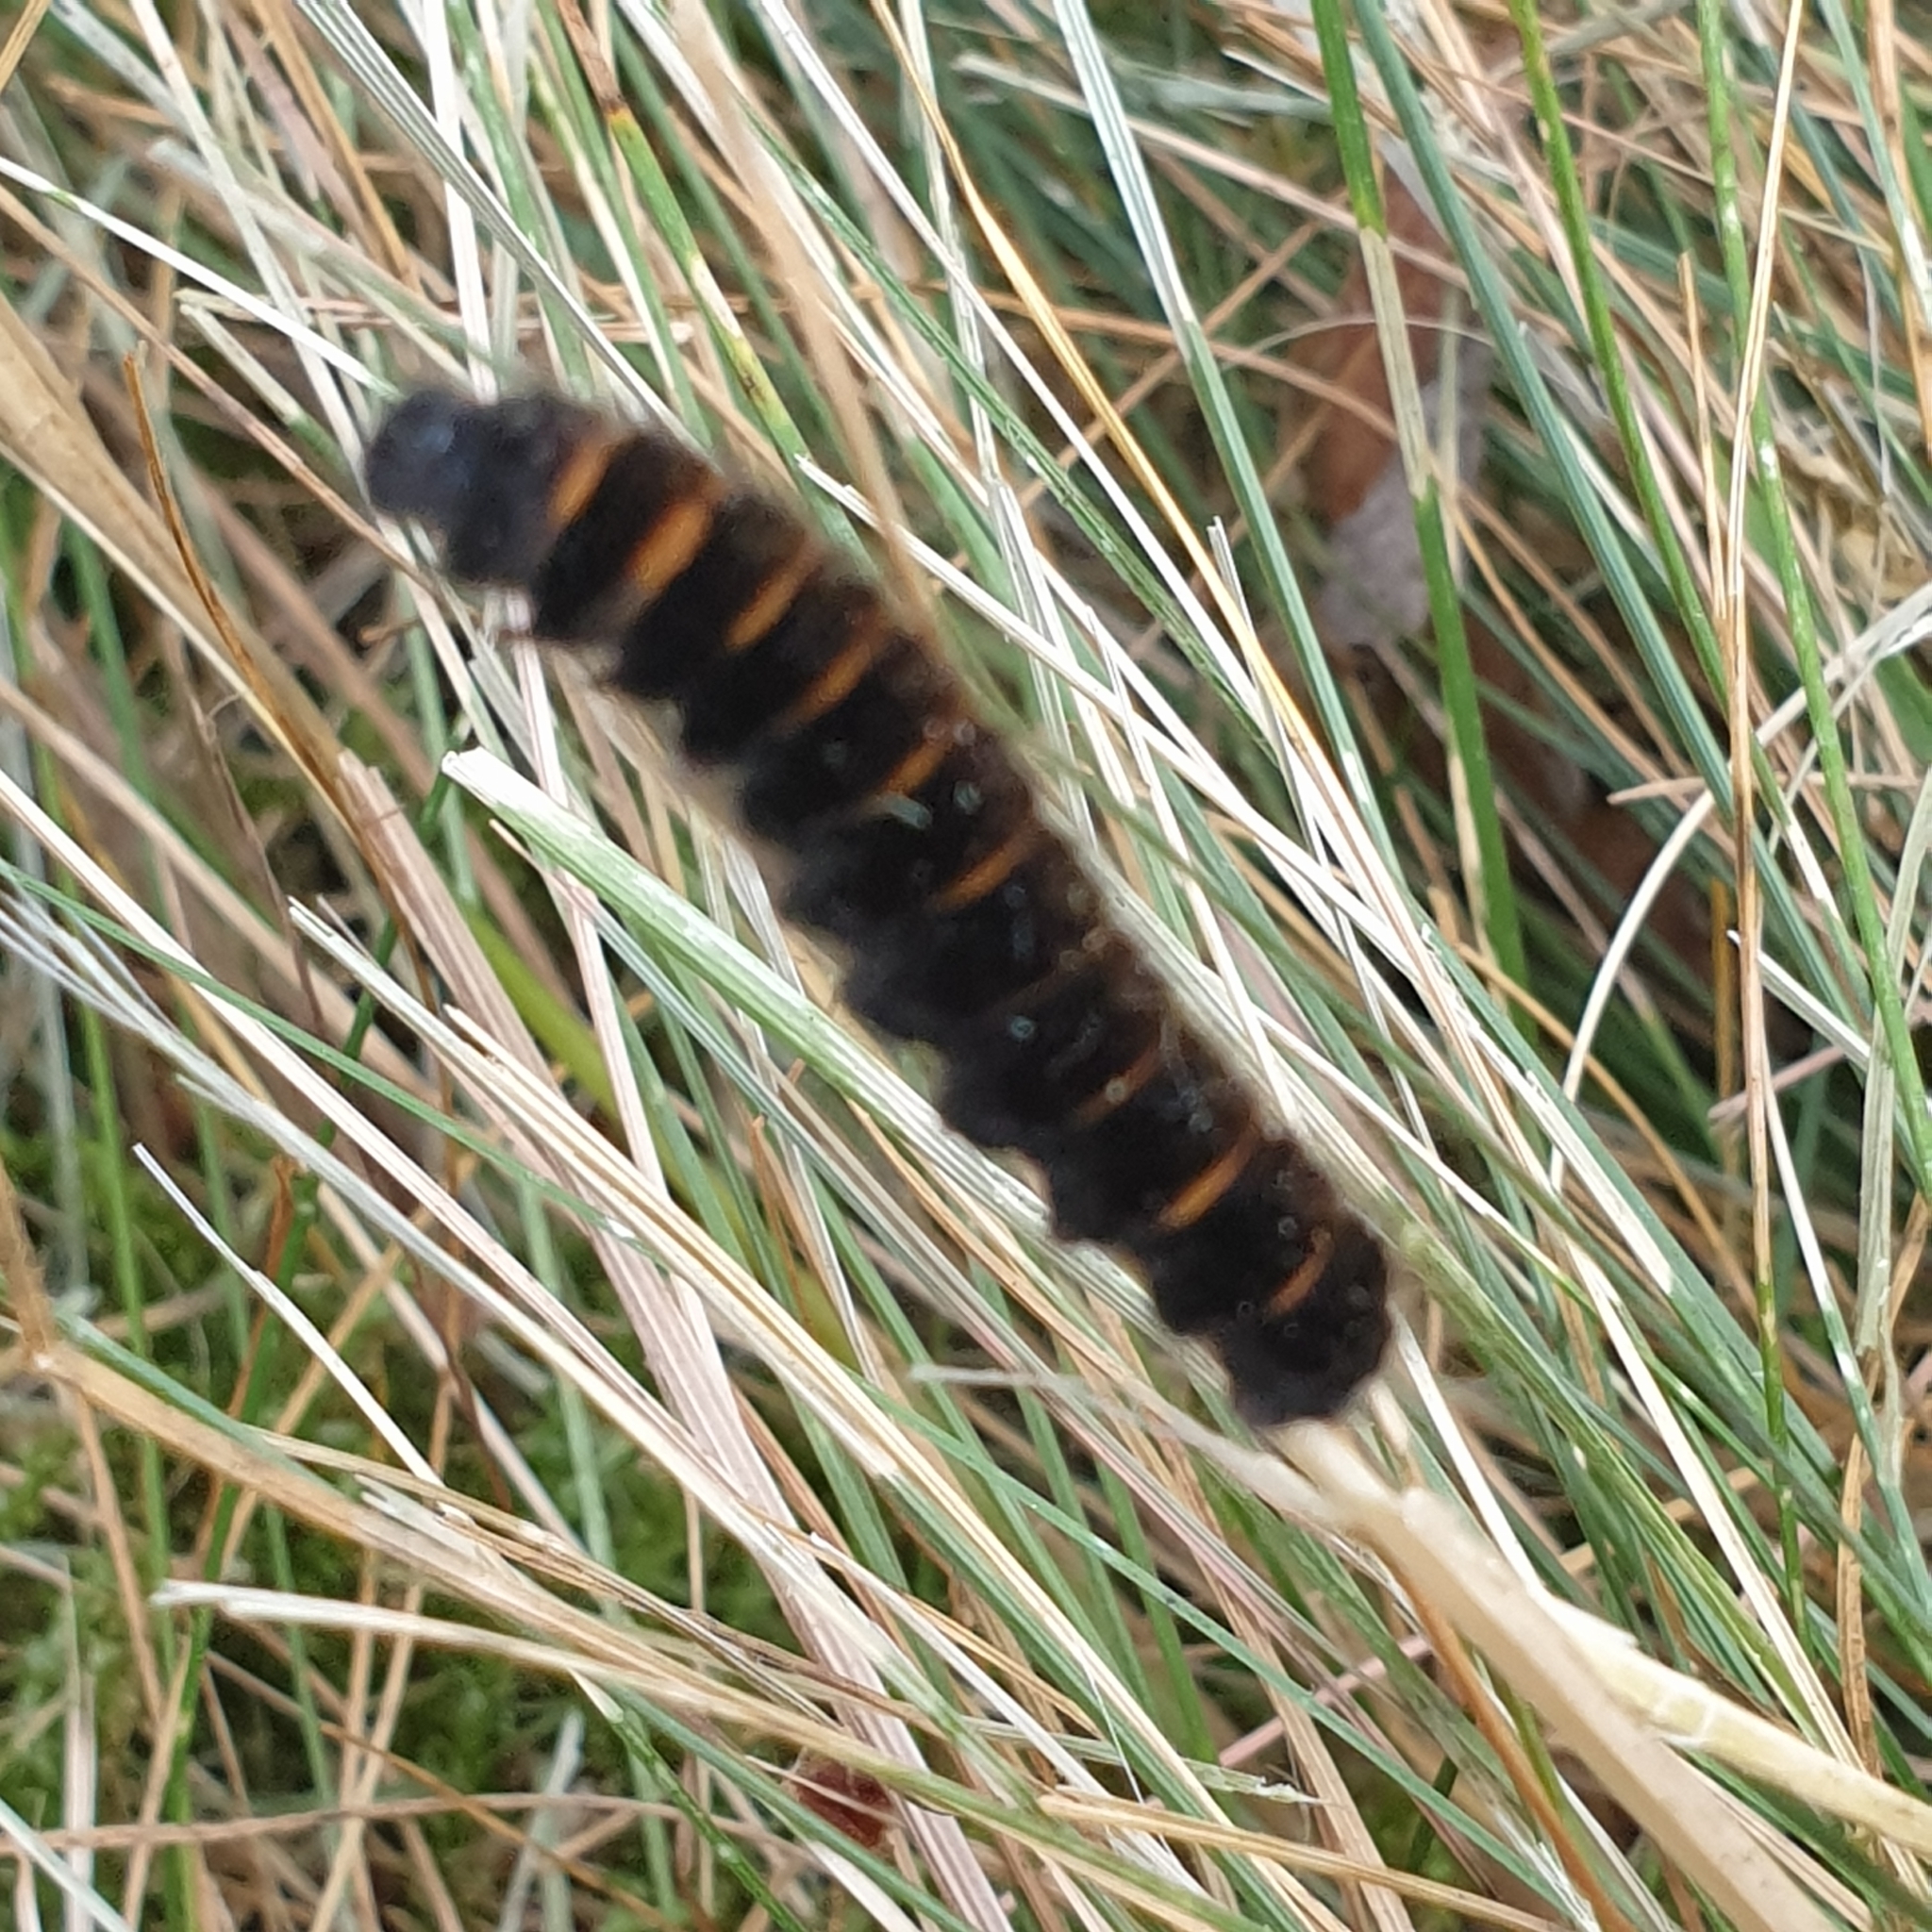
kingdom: Animalia
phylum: Arthropoda
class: Insecta
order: Lepidoptera
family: Lasiocampidae
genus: Macrothylacia
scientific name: Macrothylacia rubi
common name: Fox moth
